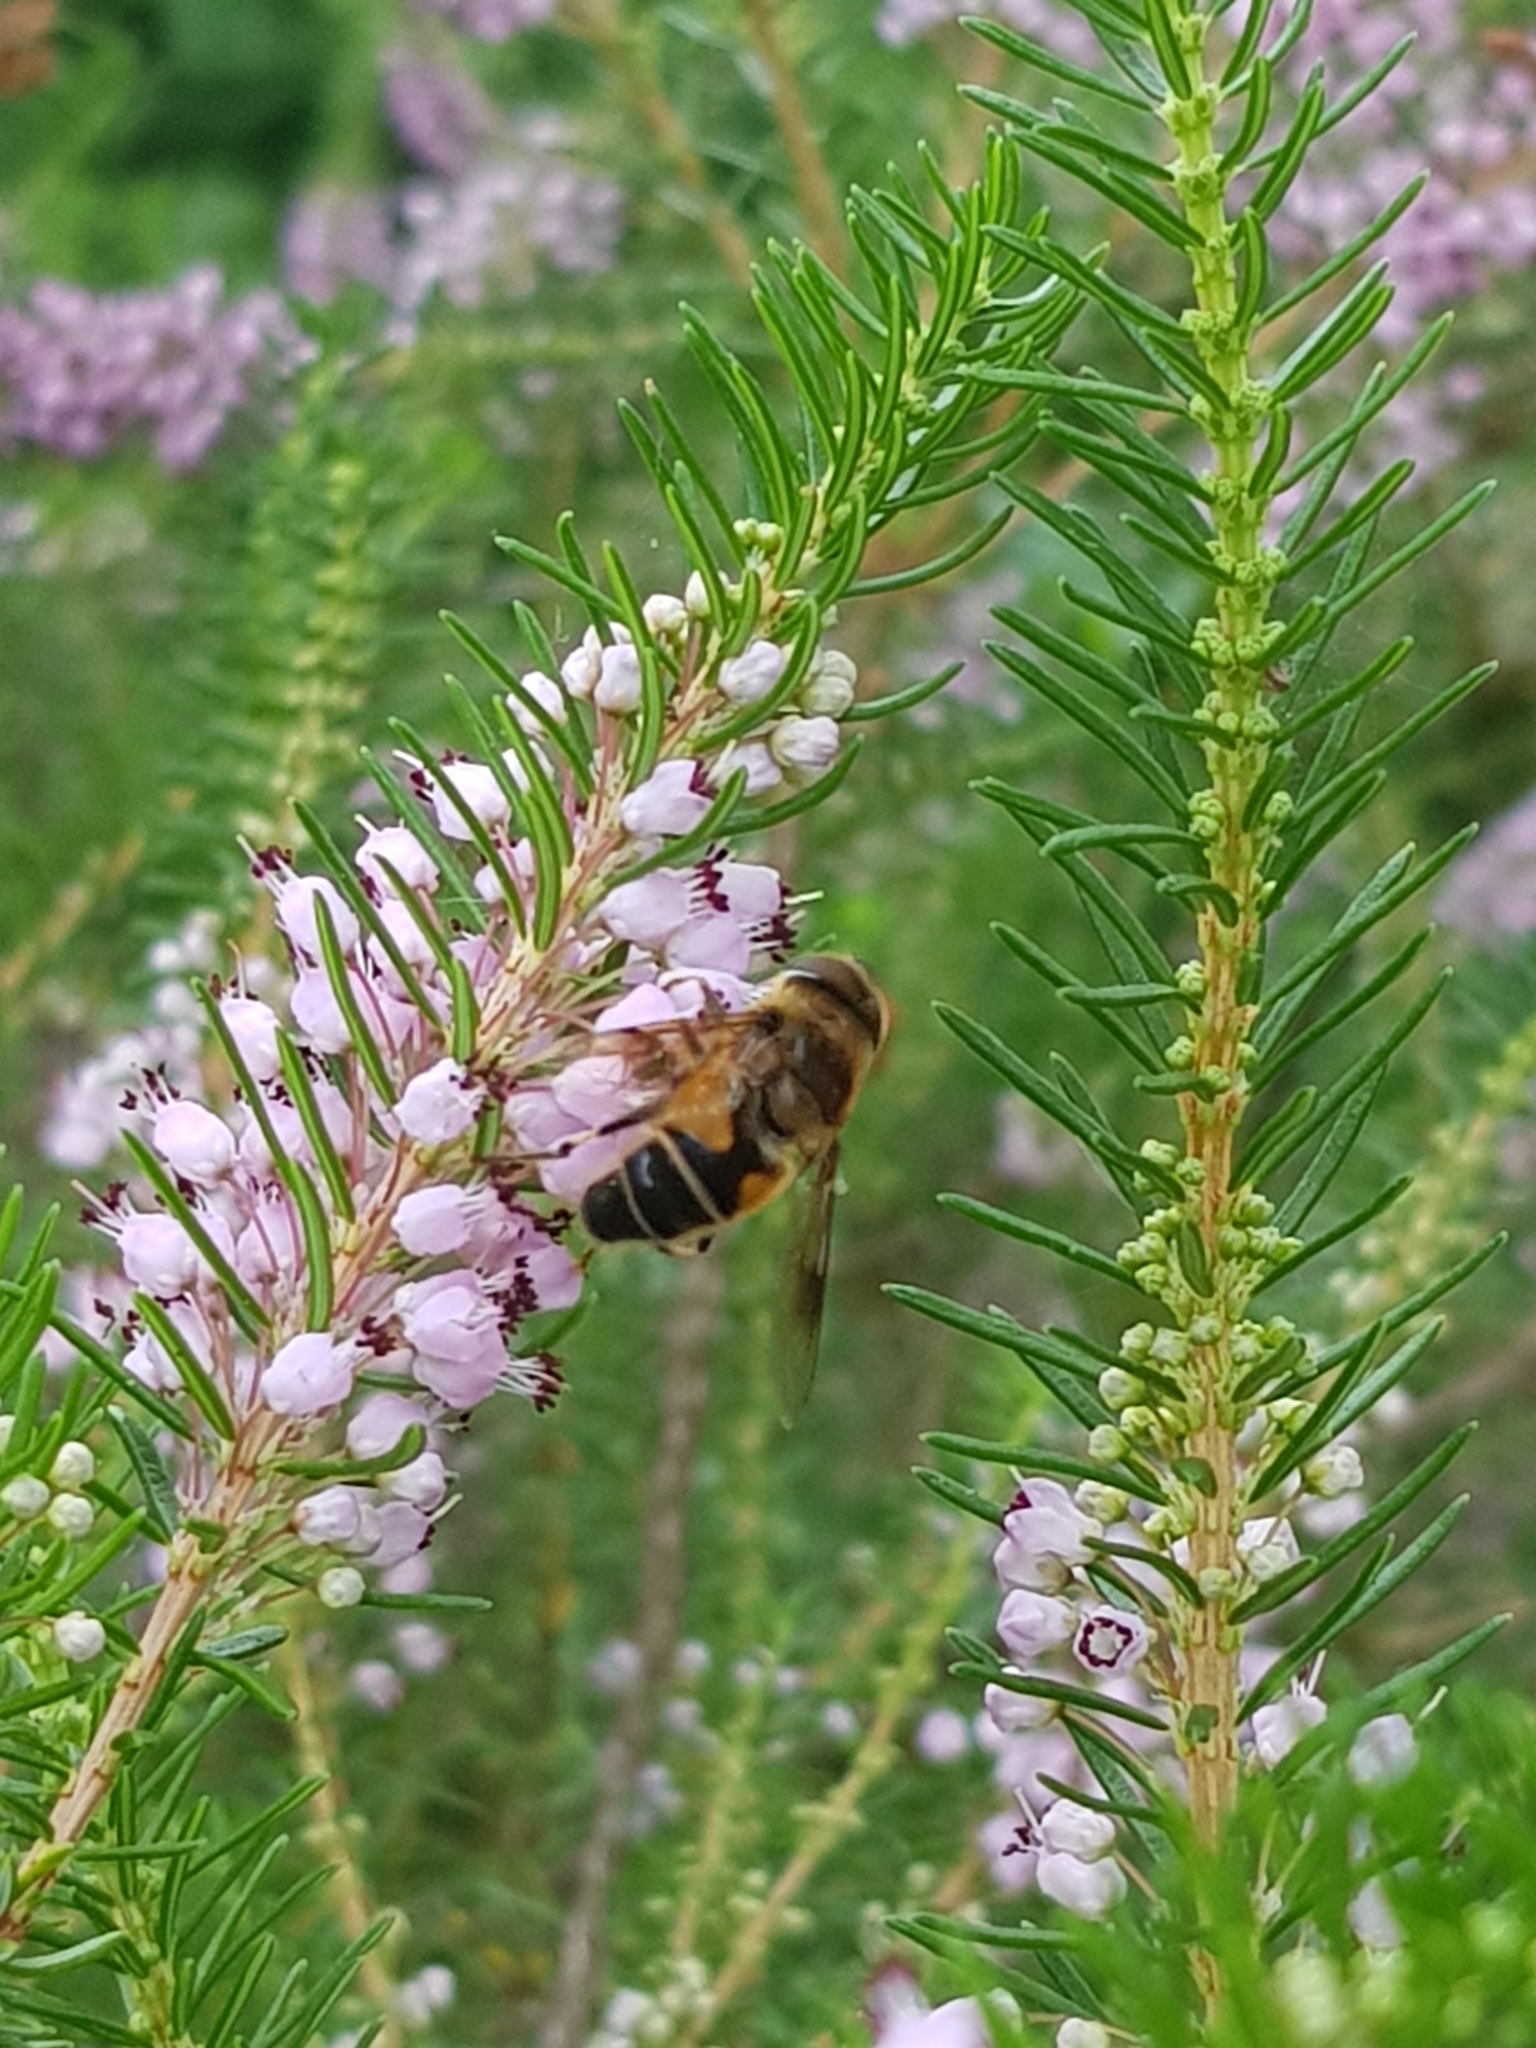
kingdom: Animalia
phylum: Arthropoda
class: Insecta
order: Diptera
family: Syrphidae
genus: Eristalis
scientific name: Eristalis pertinax
